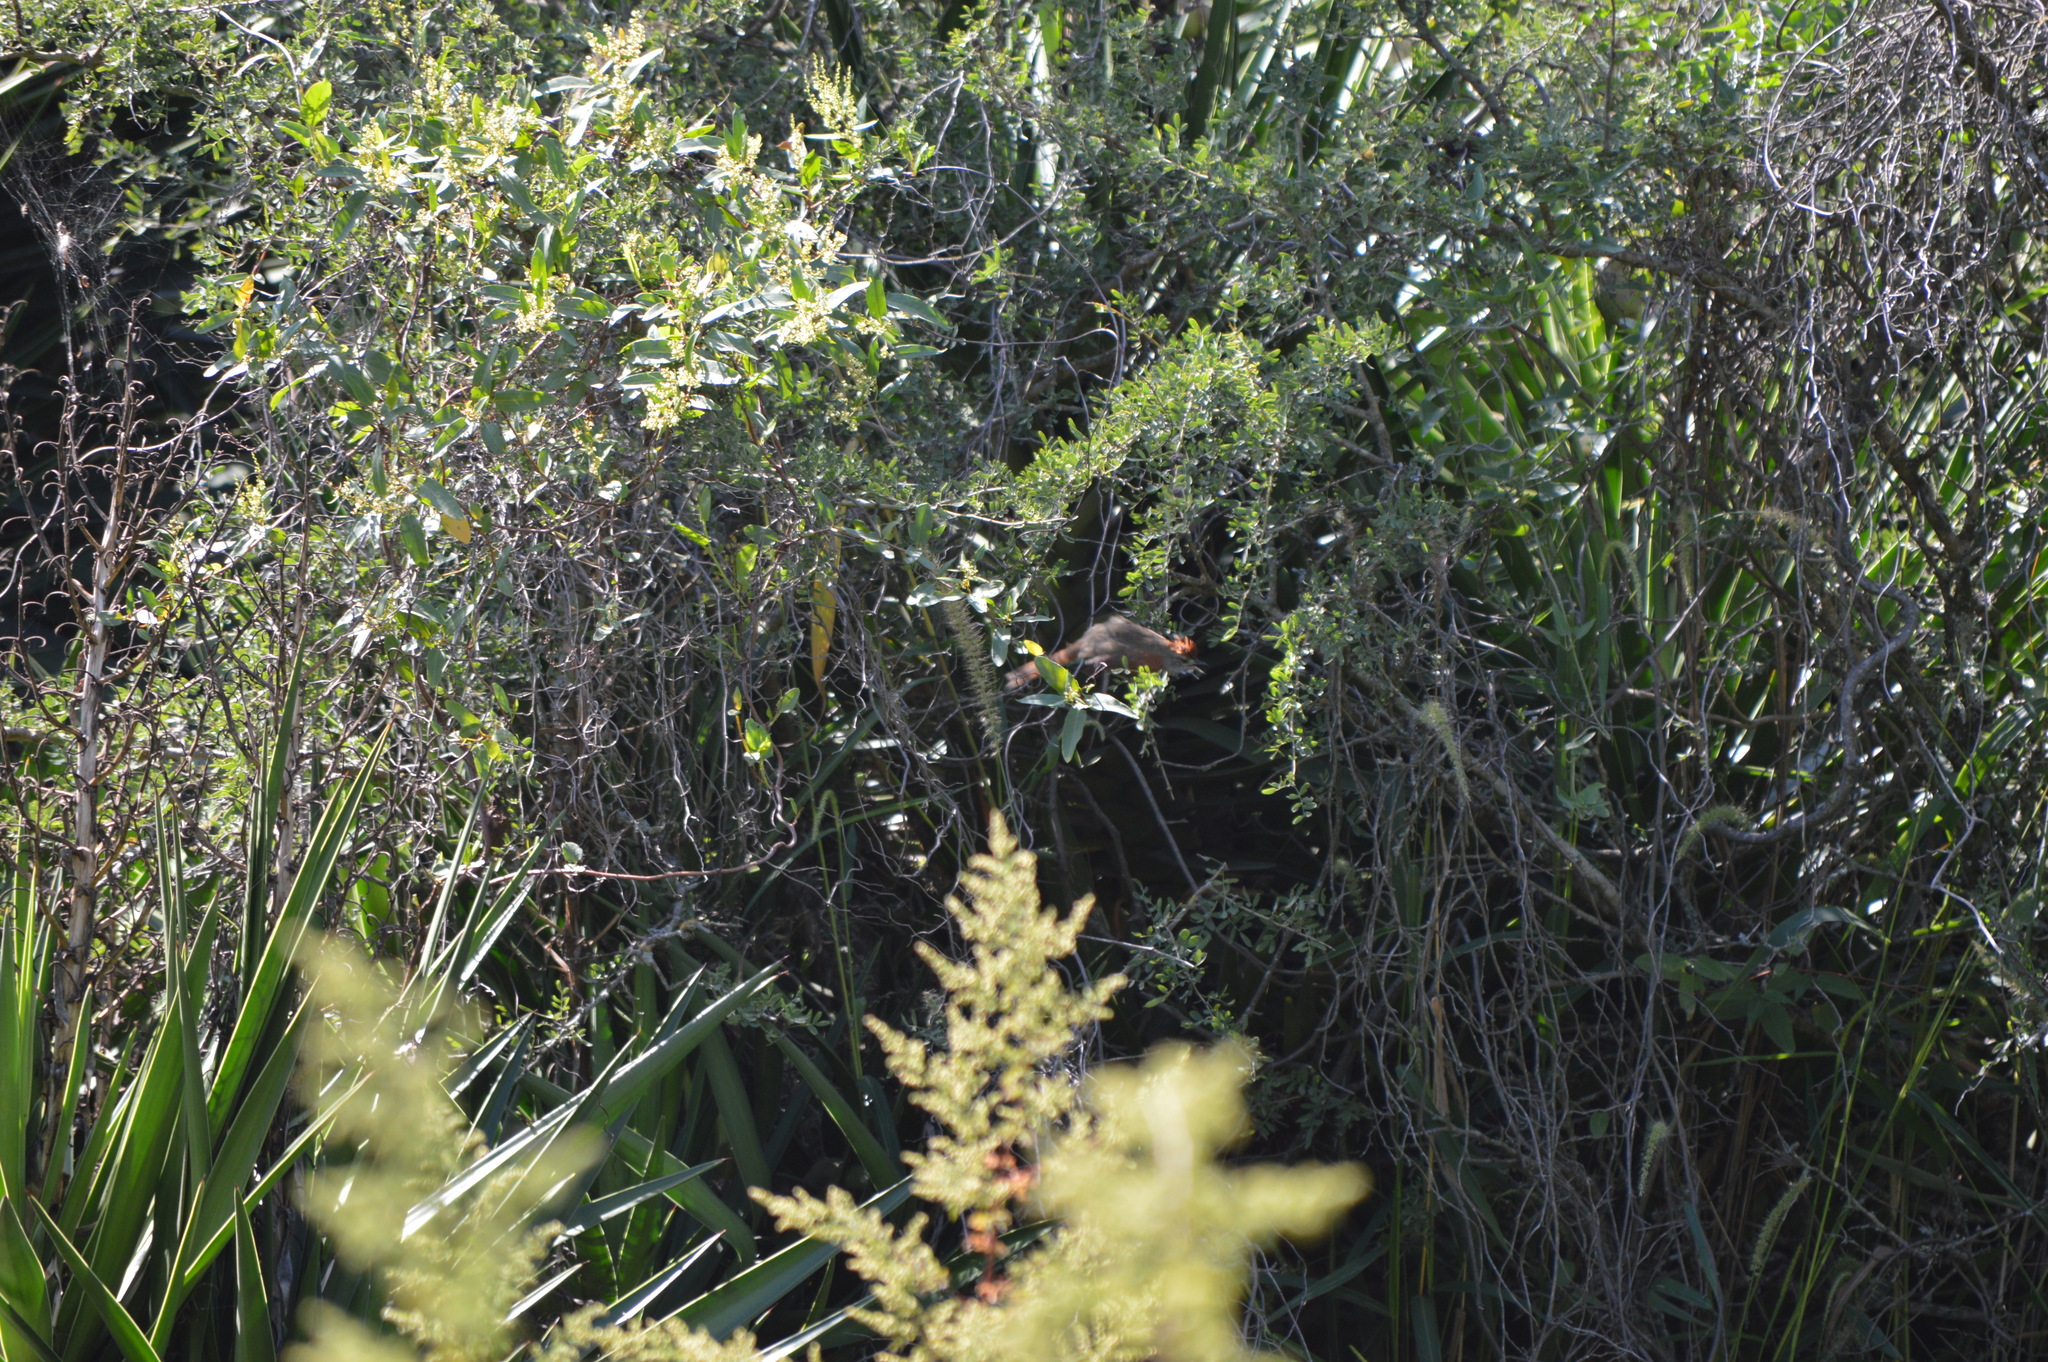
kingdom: Animalia
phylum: Chordata
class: Aves
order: Cuculiformes
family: Cuculidae
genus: Tapera
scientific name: Tapera naevia
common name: Striped cuckoo
